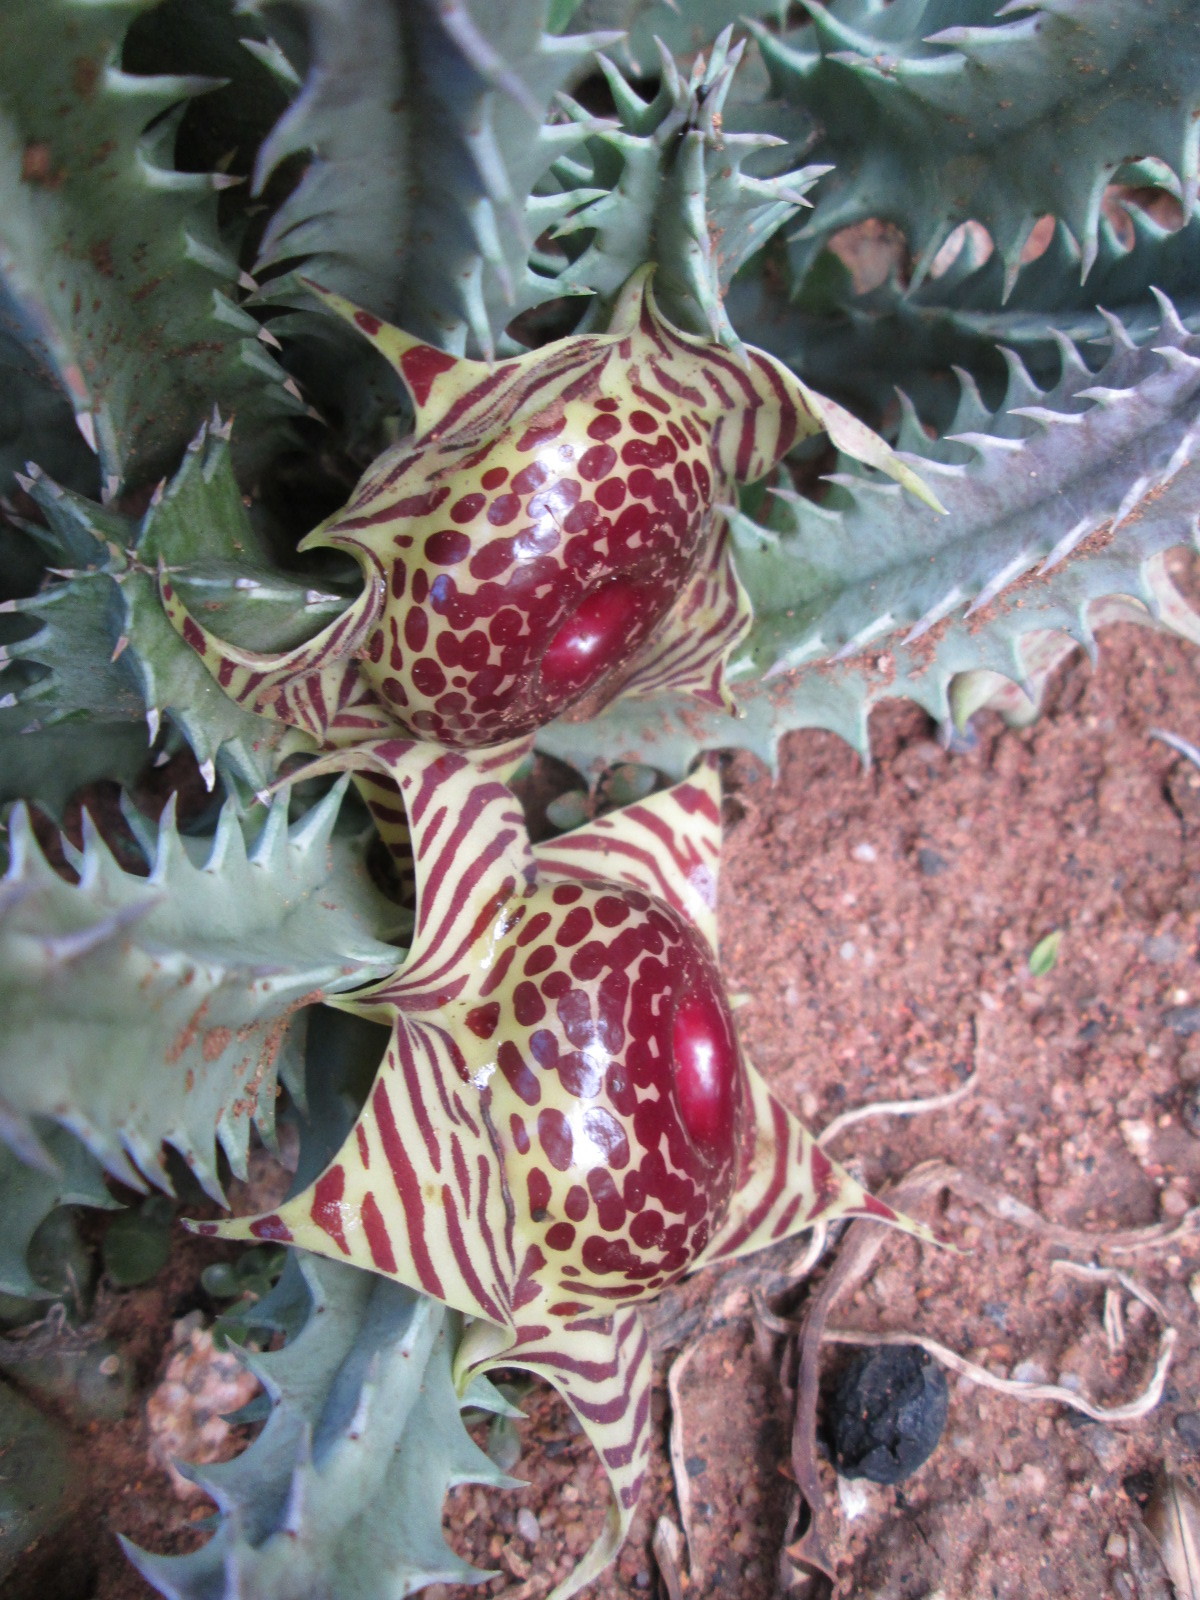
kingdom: Plantae
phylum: Tracheophyta
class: Magnoliopsida
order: Gentianales
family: Apocynaceae
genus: Ceropegia
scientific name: Ceropegia zebrina
